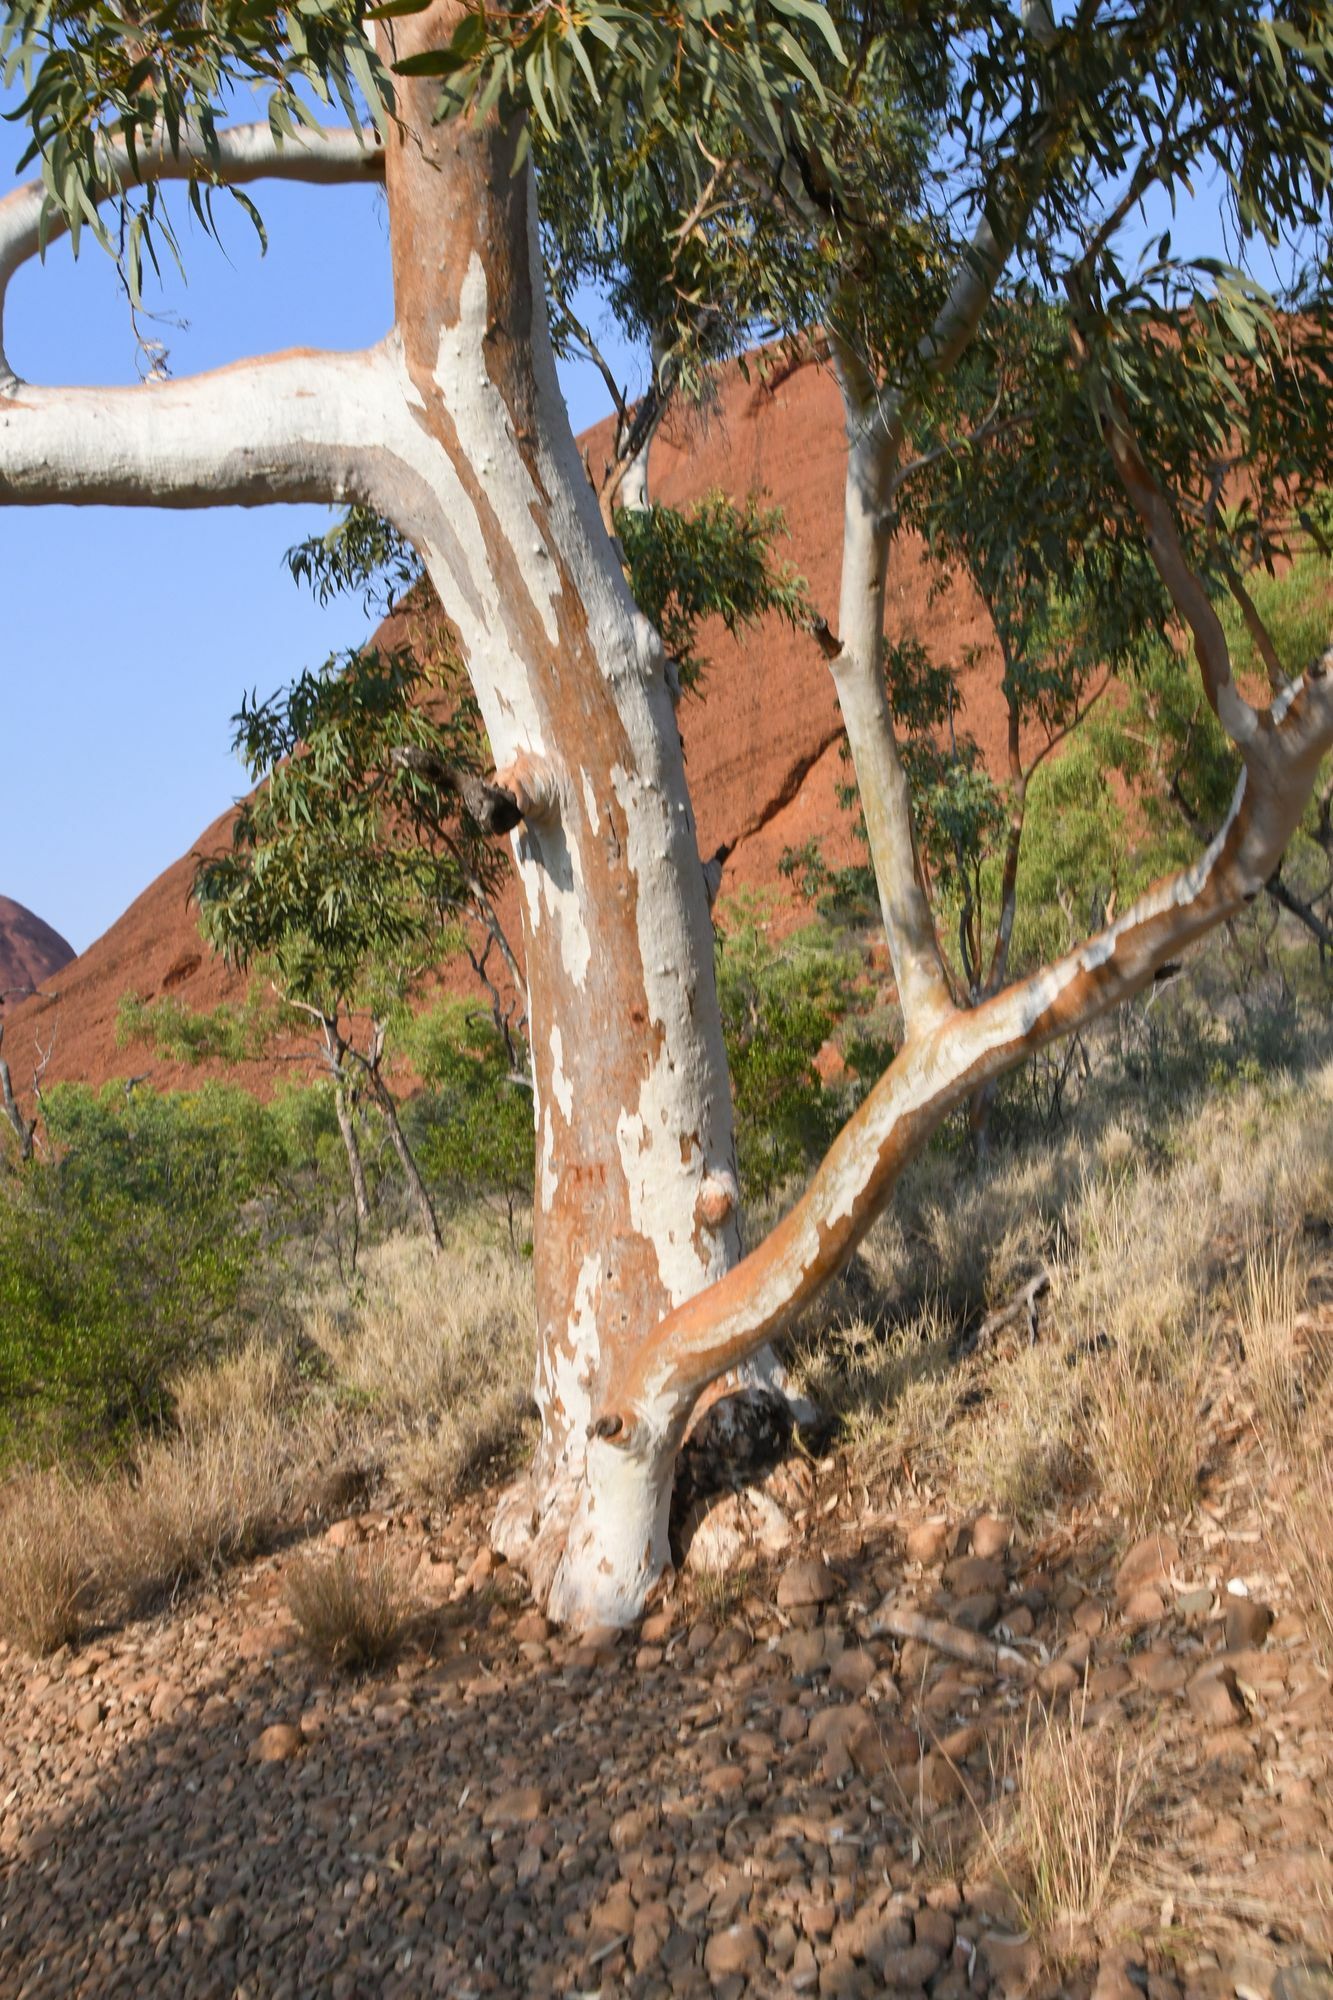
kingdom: Plantae
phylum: Tracheophyta
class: Magnoliopsida
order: Myrtales
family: Myrtaceae
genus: Eucalyptus
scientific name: Eucalyptus camaldulensis
